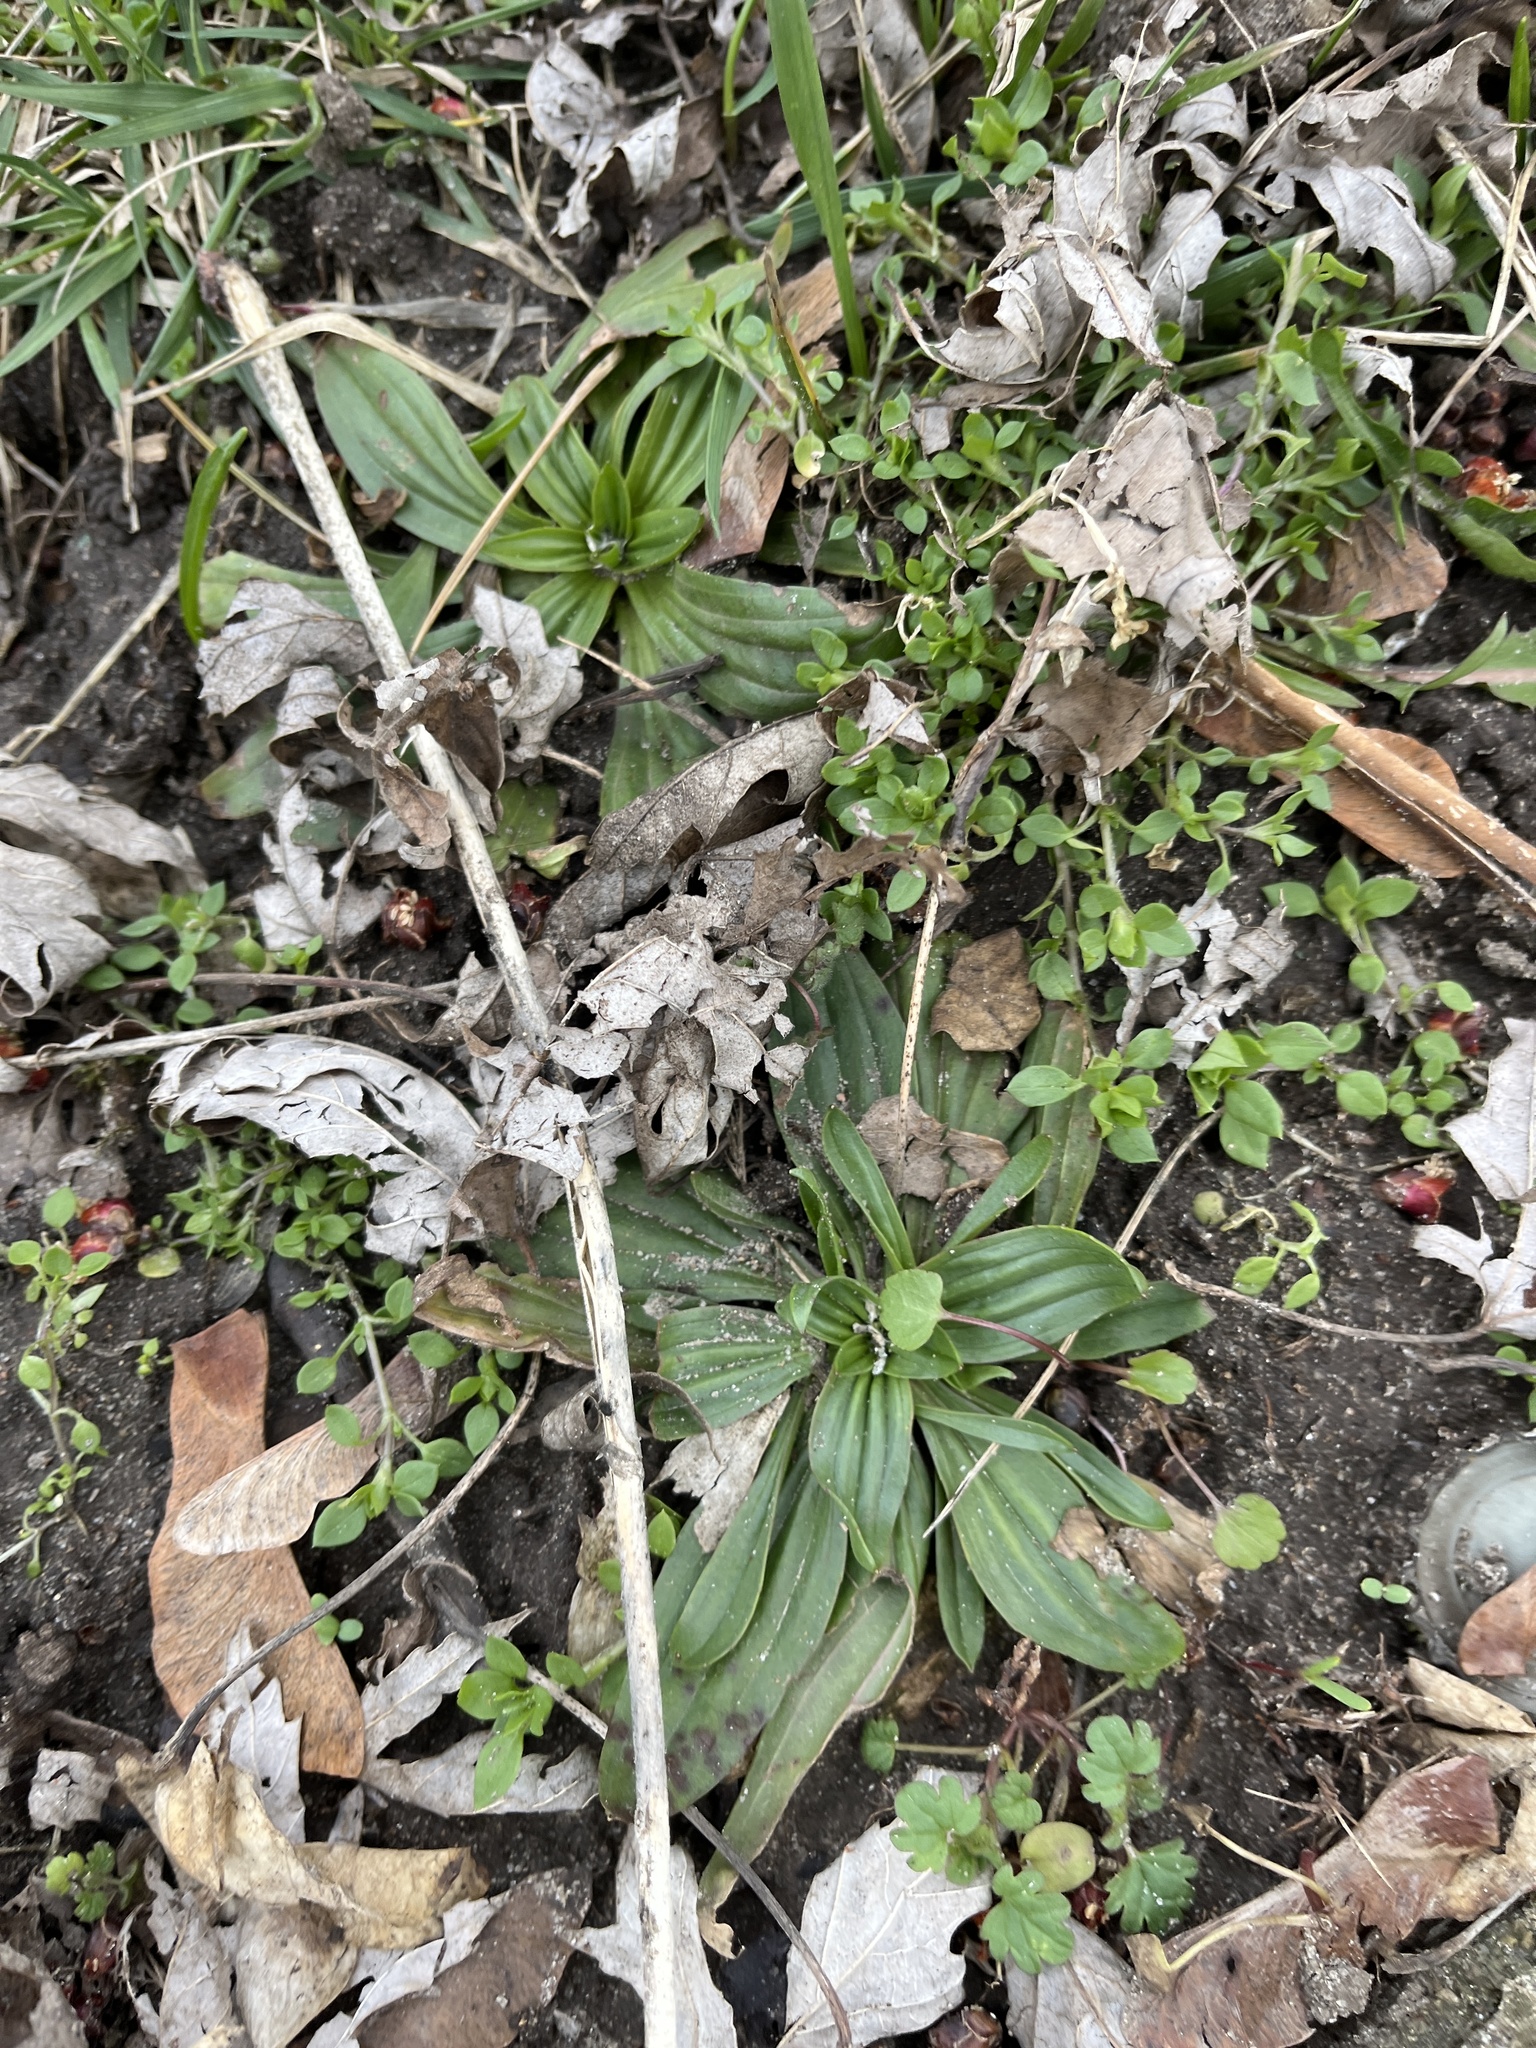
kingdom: Plantae
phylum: Tracheophyta
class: Magnoliopsida
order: Lamiales
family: Plantaginaceae
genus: Plantago
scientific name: Plantago lanceolata
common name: Ribwort plantain
